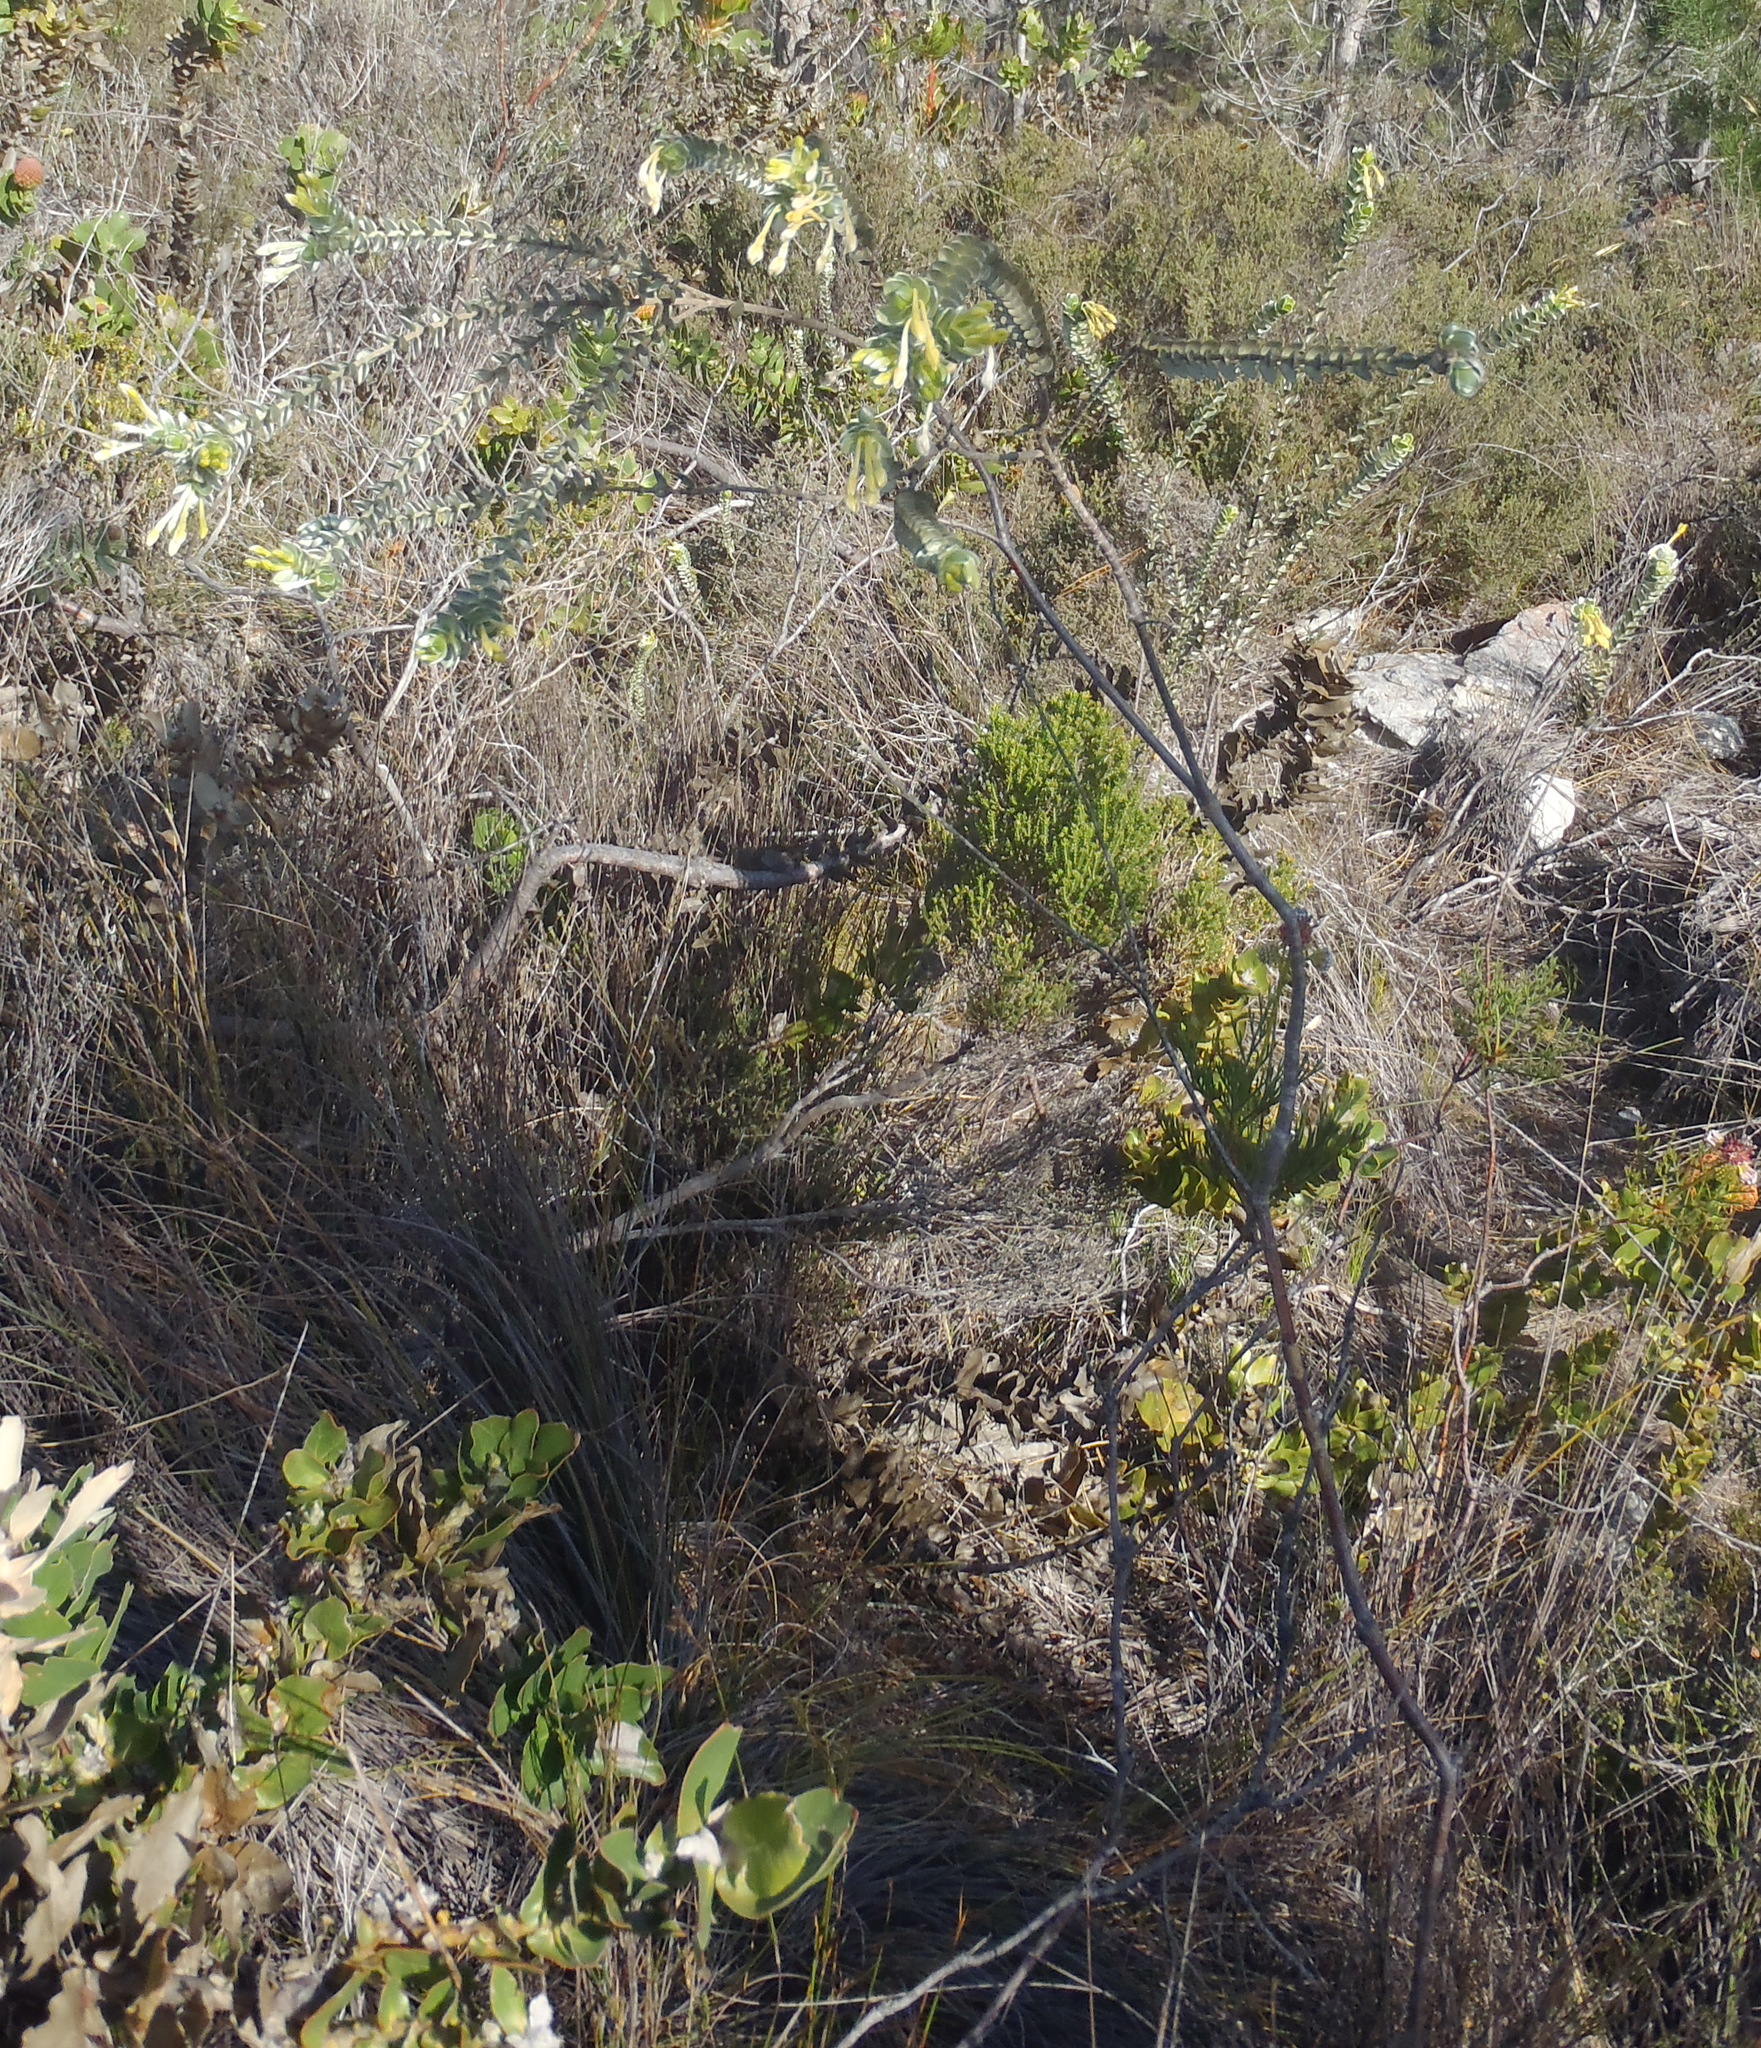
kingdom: Plantae
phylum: Tracheophyta
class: Magnoliopsida
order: Malvales
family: Thymelaeaceae
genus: Gnidia
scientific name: Gnidia anomala
